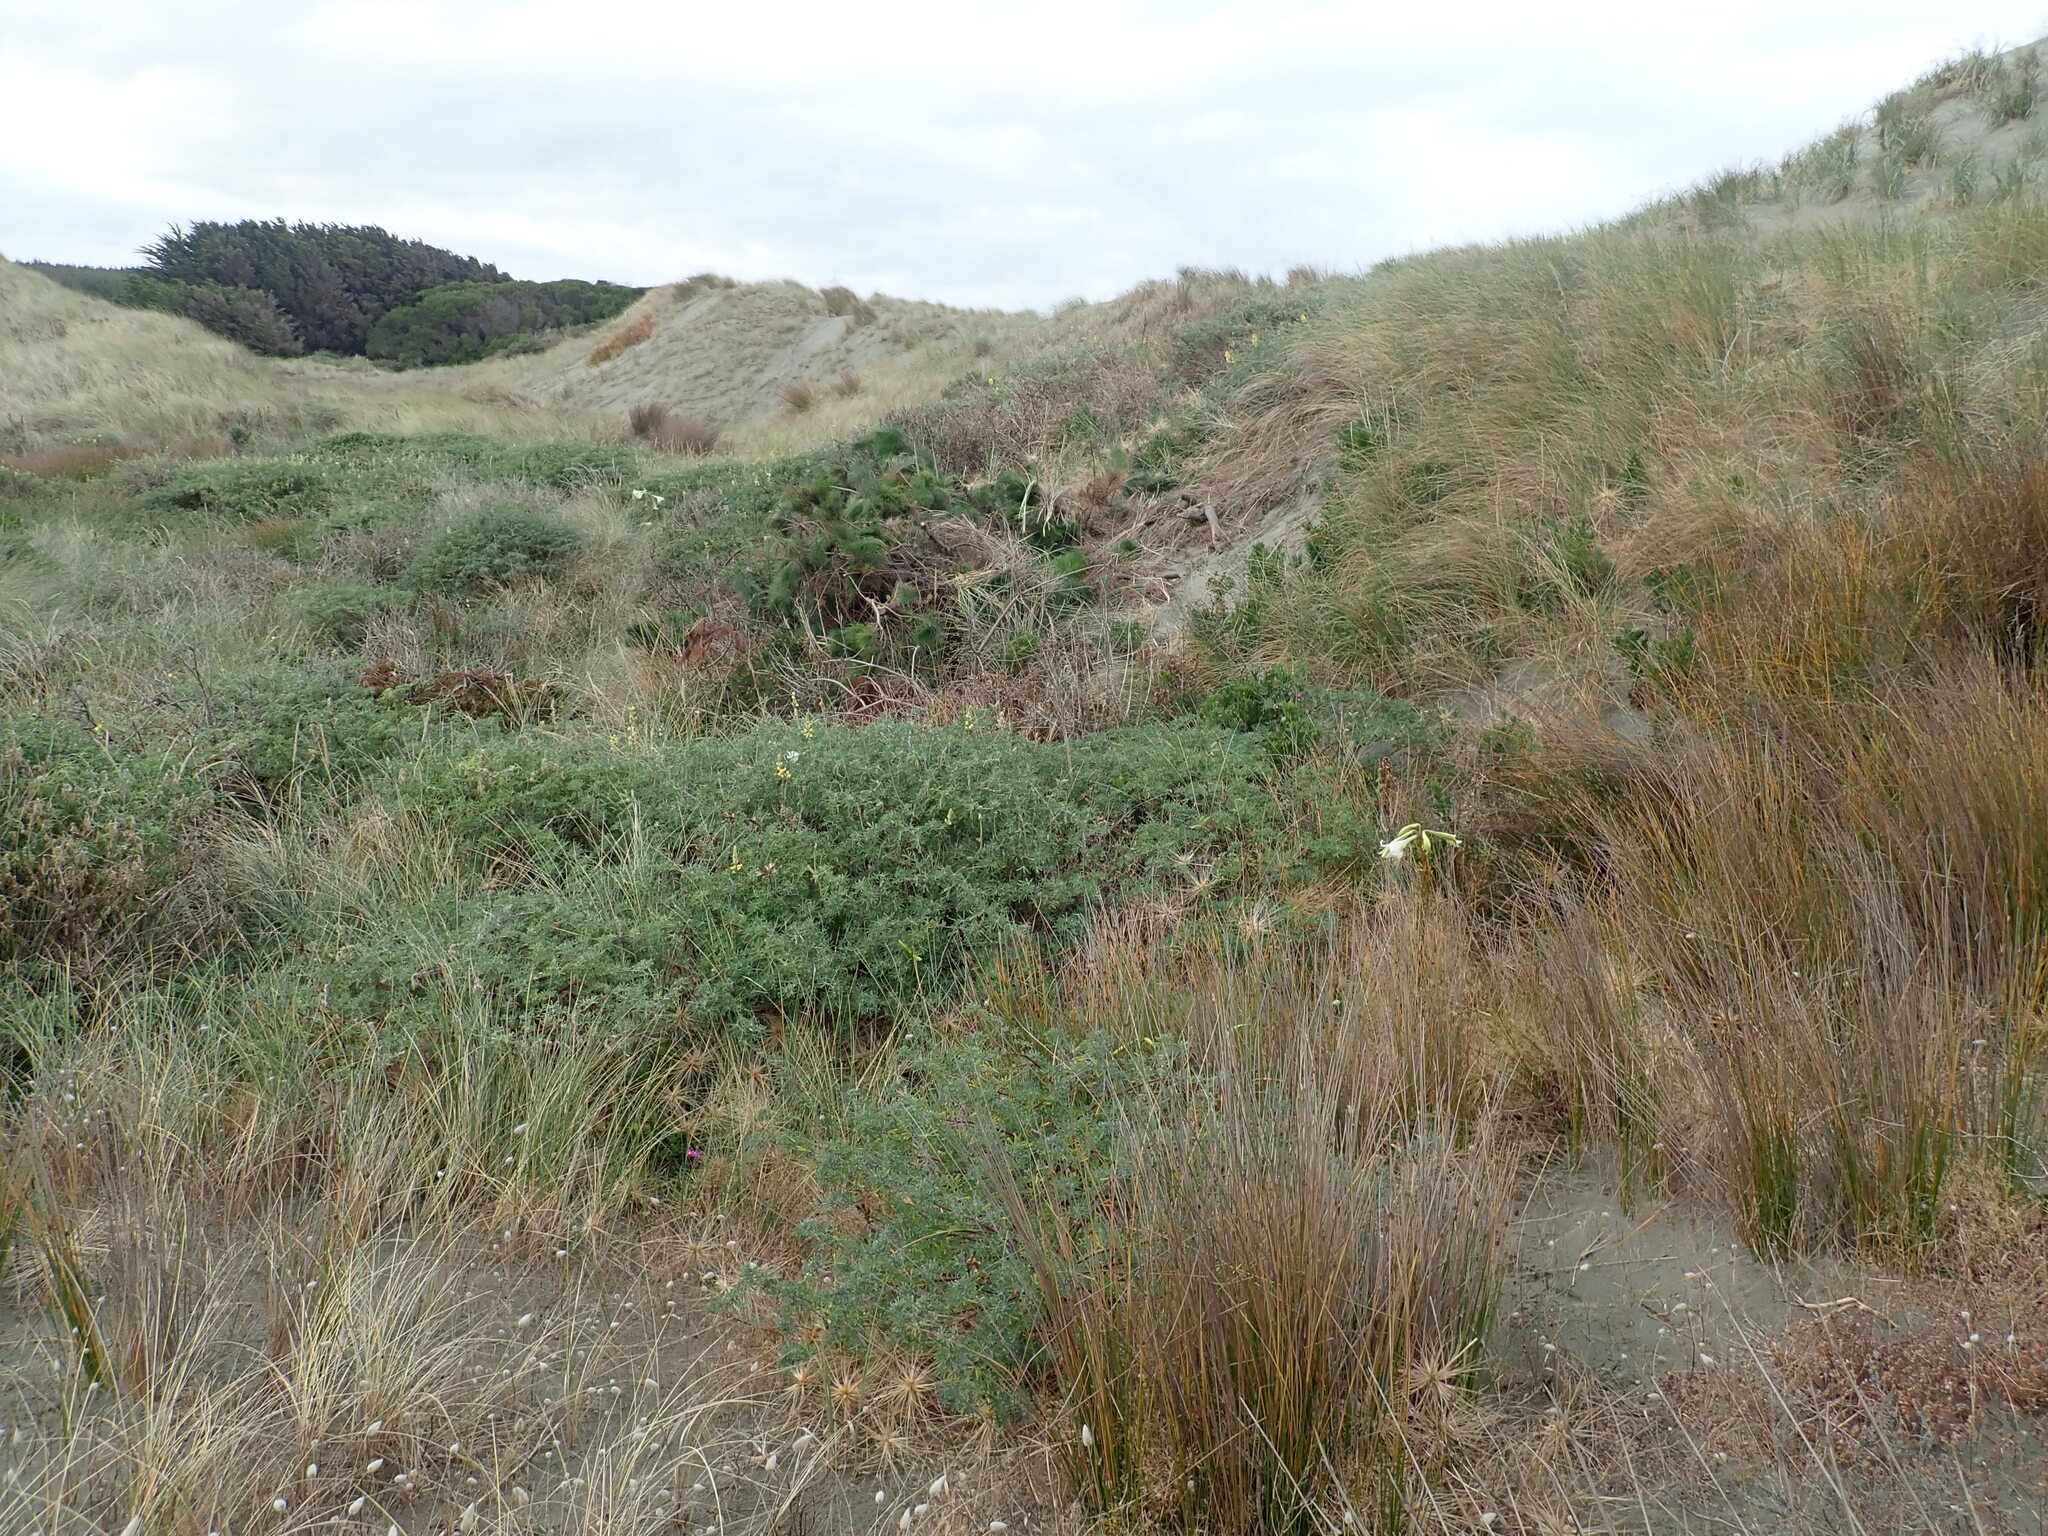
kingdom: Plantae
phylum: Tracheophyta
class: Pinopsida
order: Pinales
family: Pinaceae
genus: Pinus
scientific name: Pinus radiata
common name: Monterey pine
